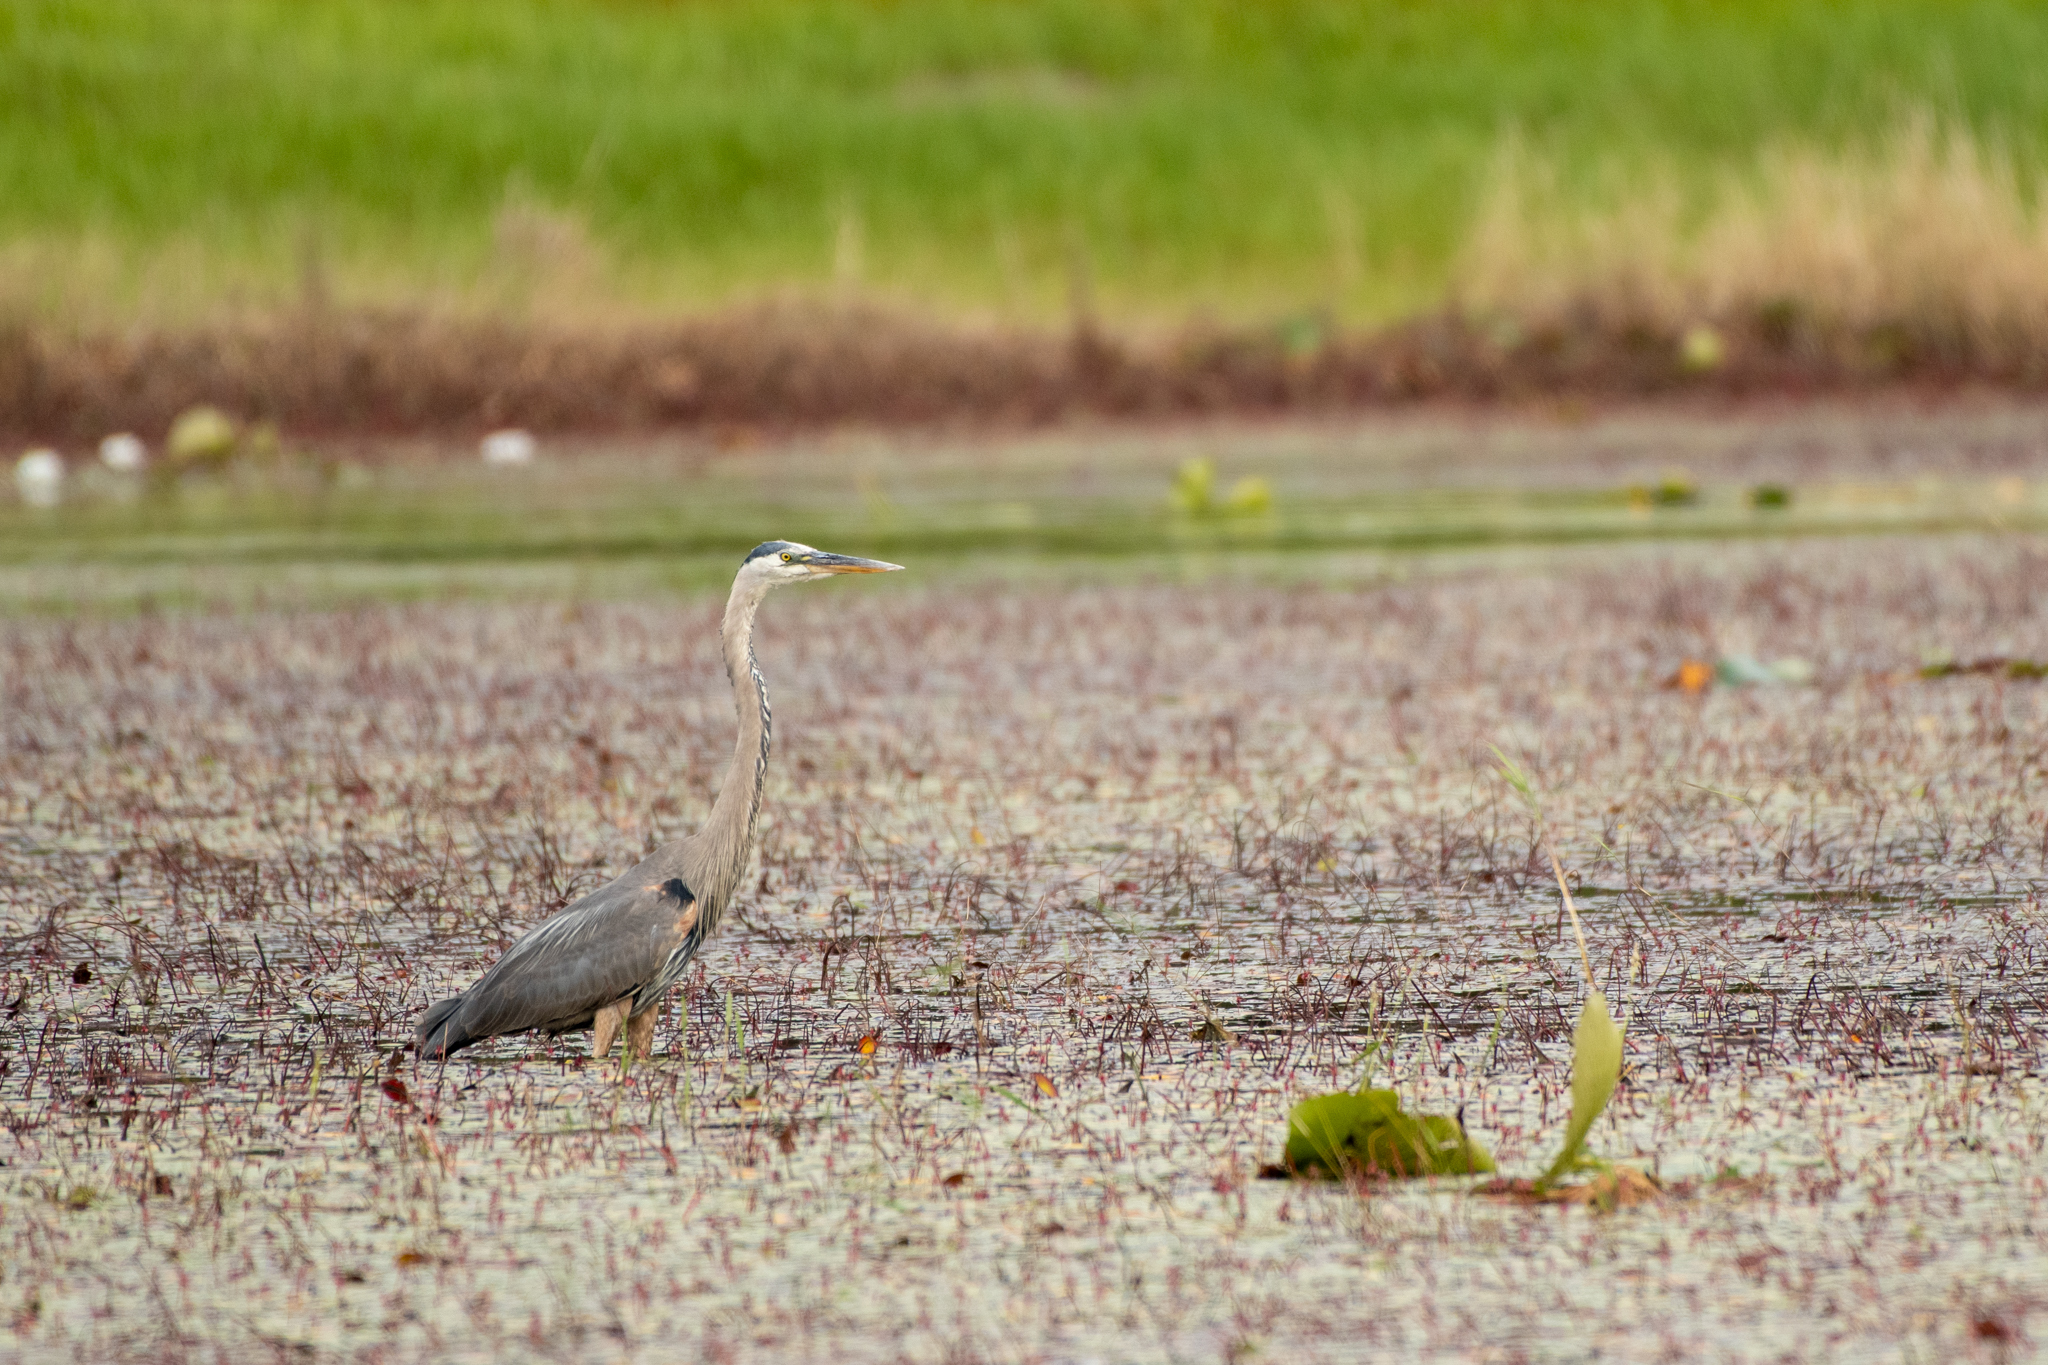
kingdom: Animalia
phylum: Chordata
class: Aves
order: Pelecaniformes
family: Ardeidae
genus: Ardea
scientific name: Ardea herodias
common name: Great blue heron
